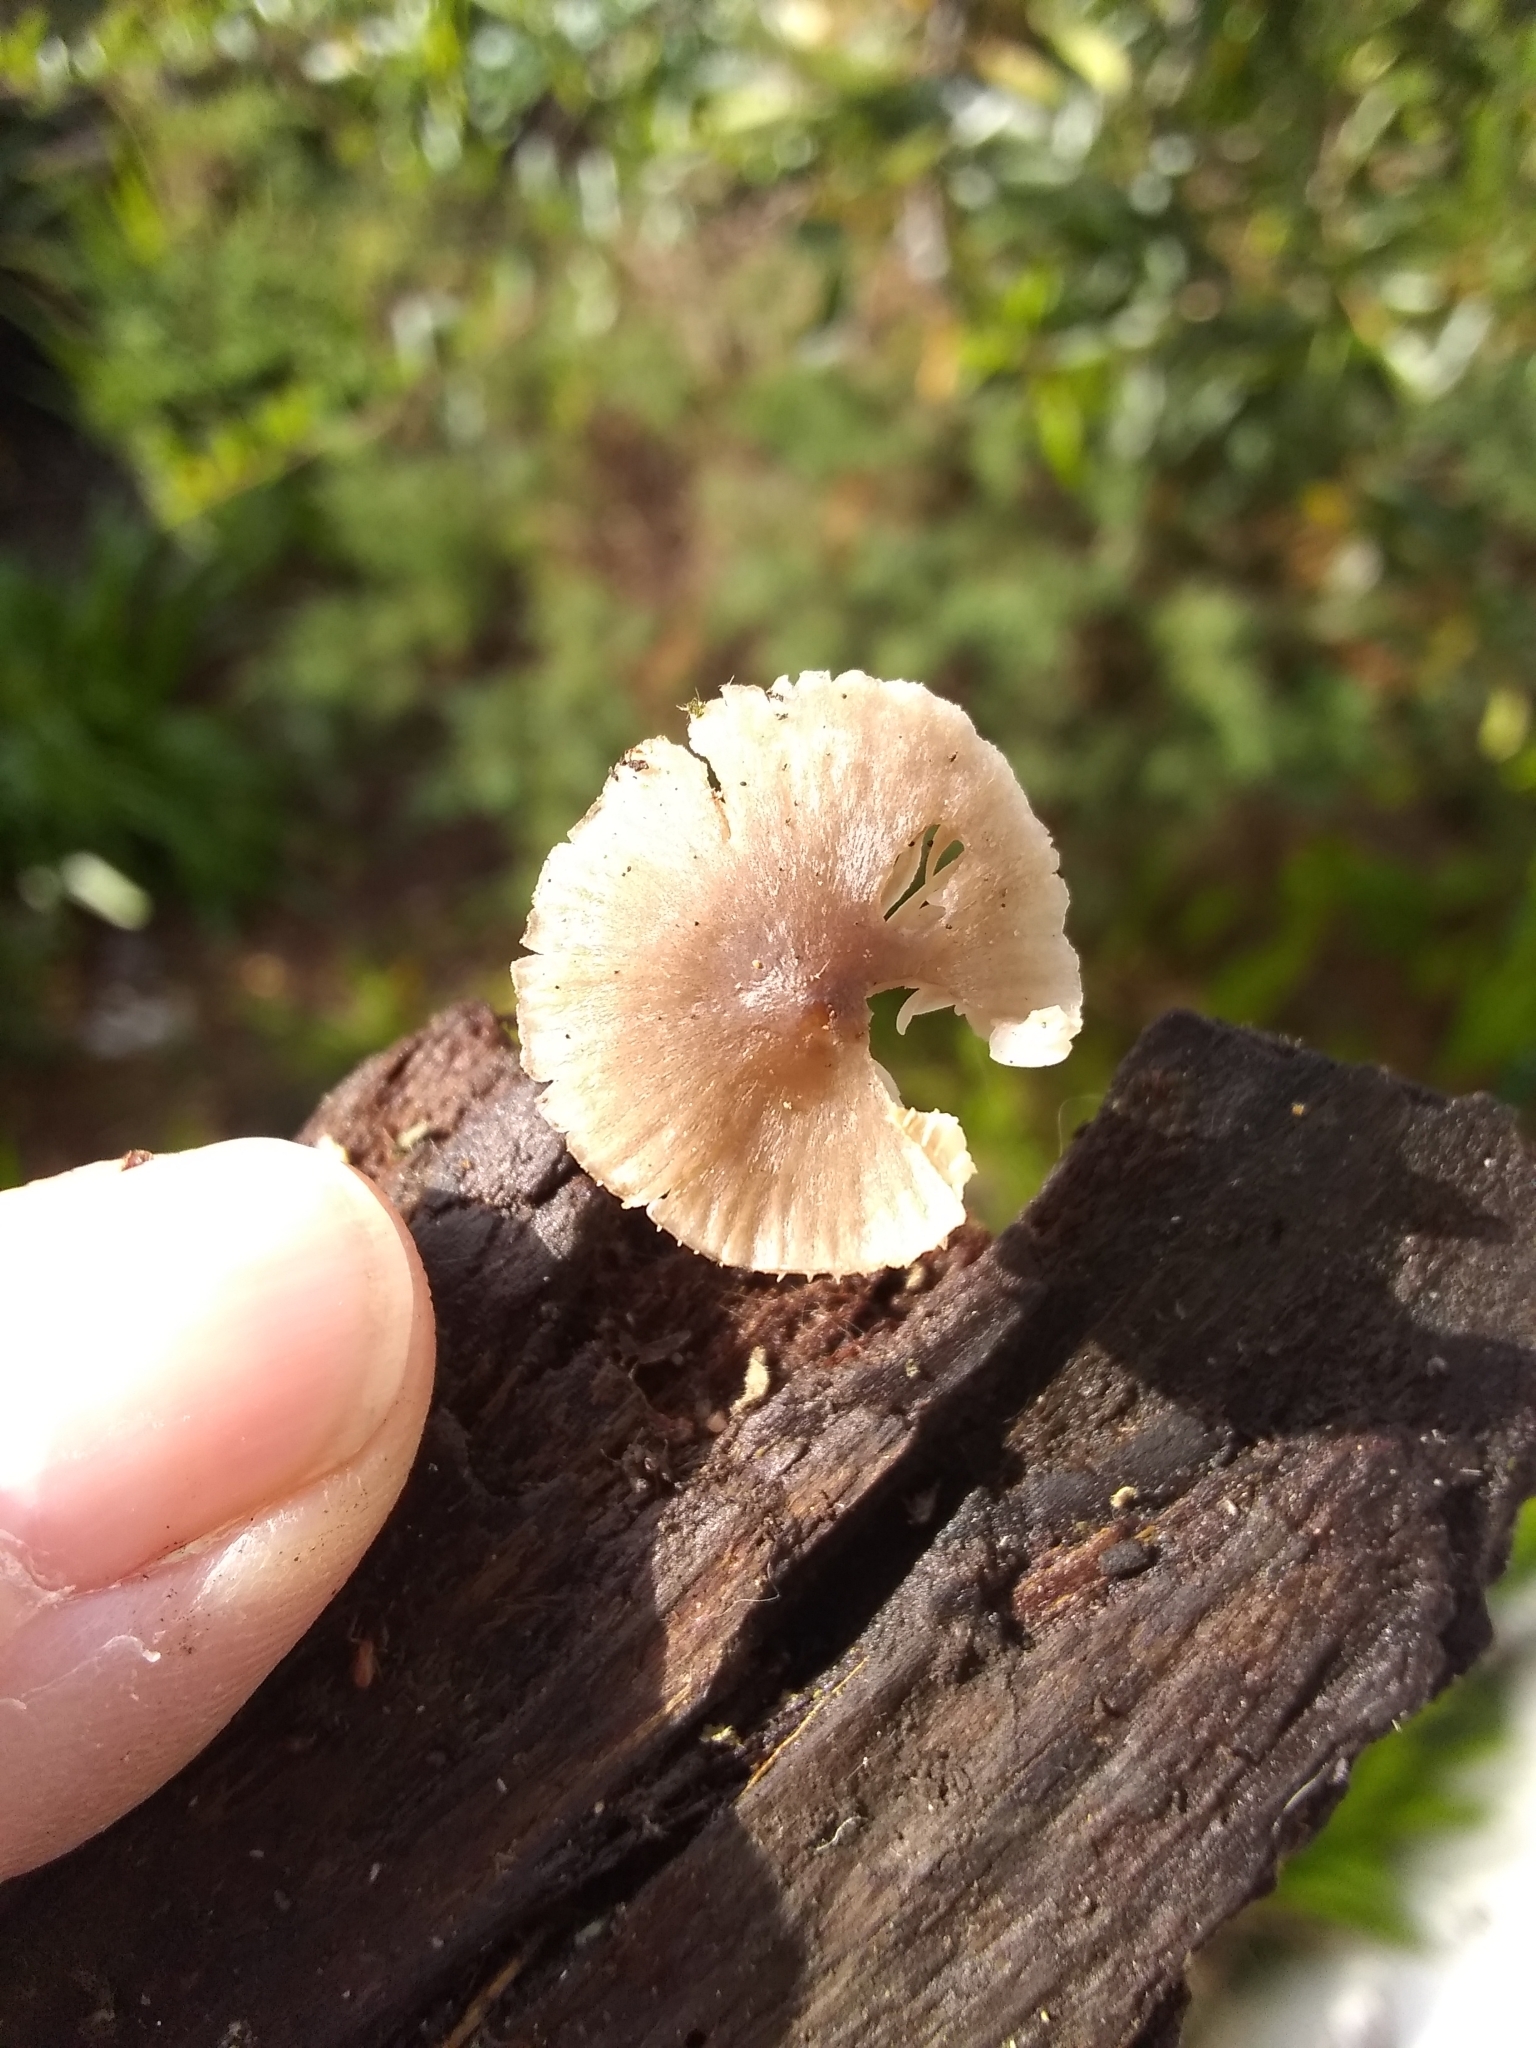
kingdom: Fungi
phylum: Basidiomycota
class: Agaricomycetes
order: Agaricales
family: Mycenaceae
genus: Mycena
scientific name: Mycena leptocephala
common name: Nitrous bonnet
